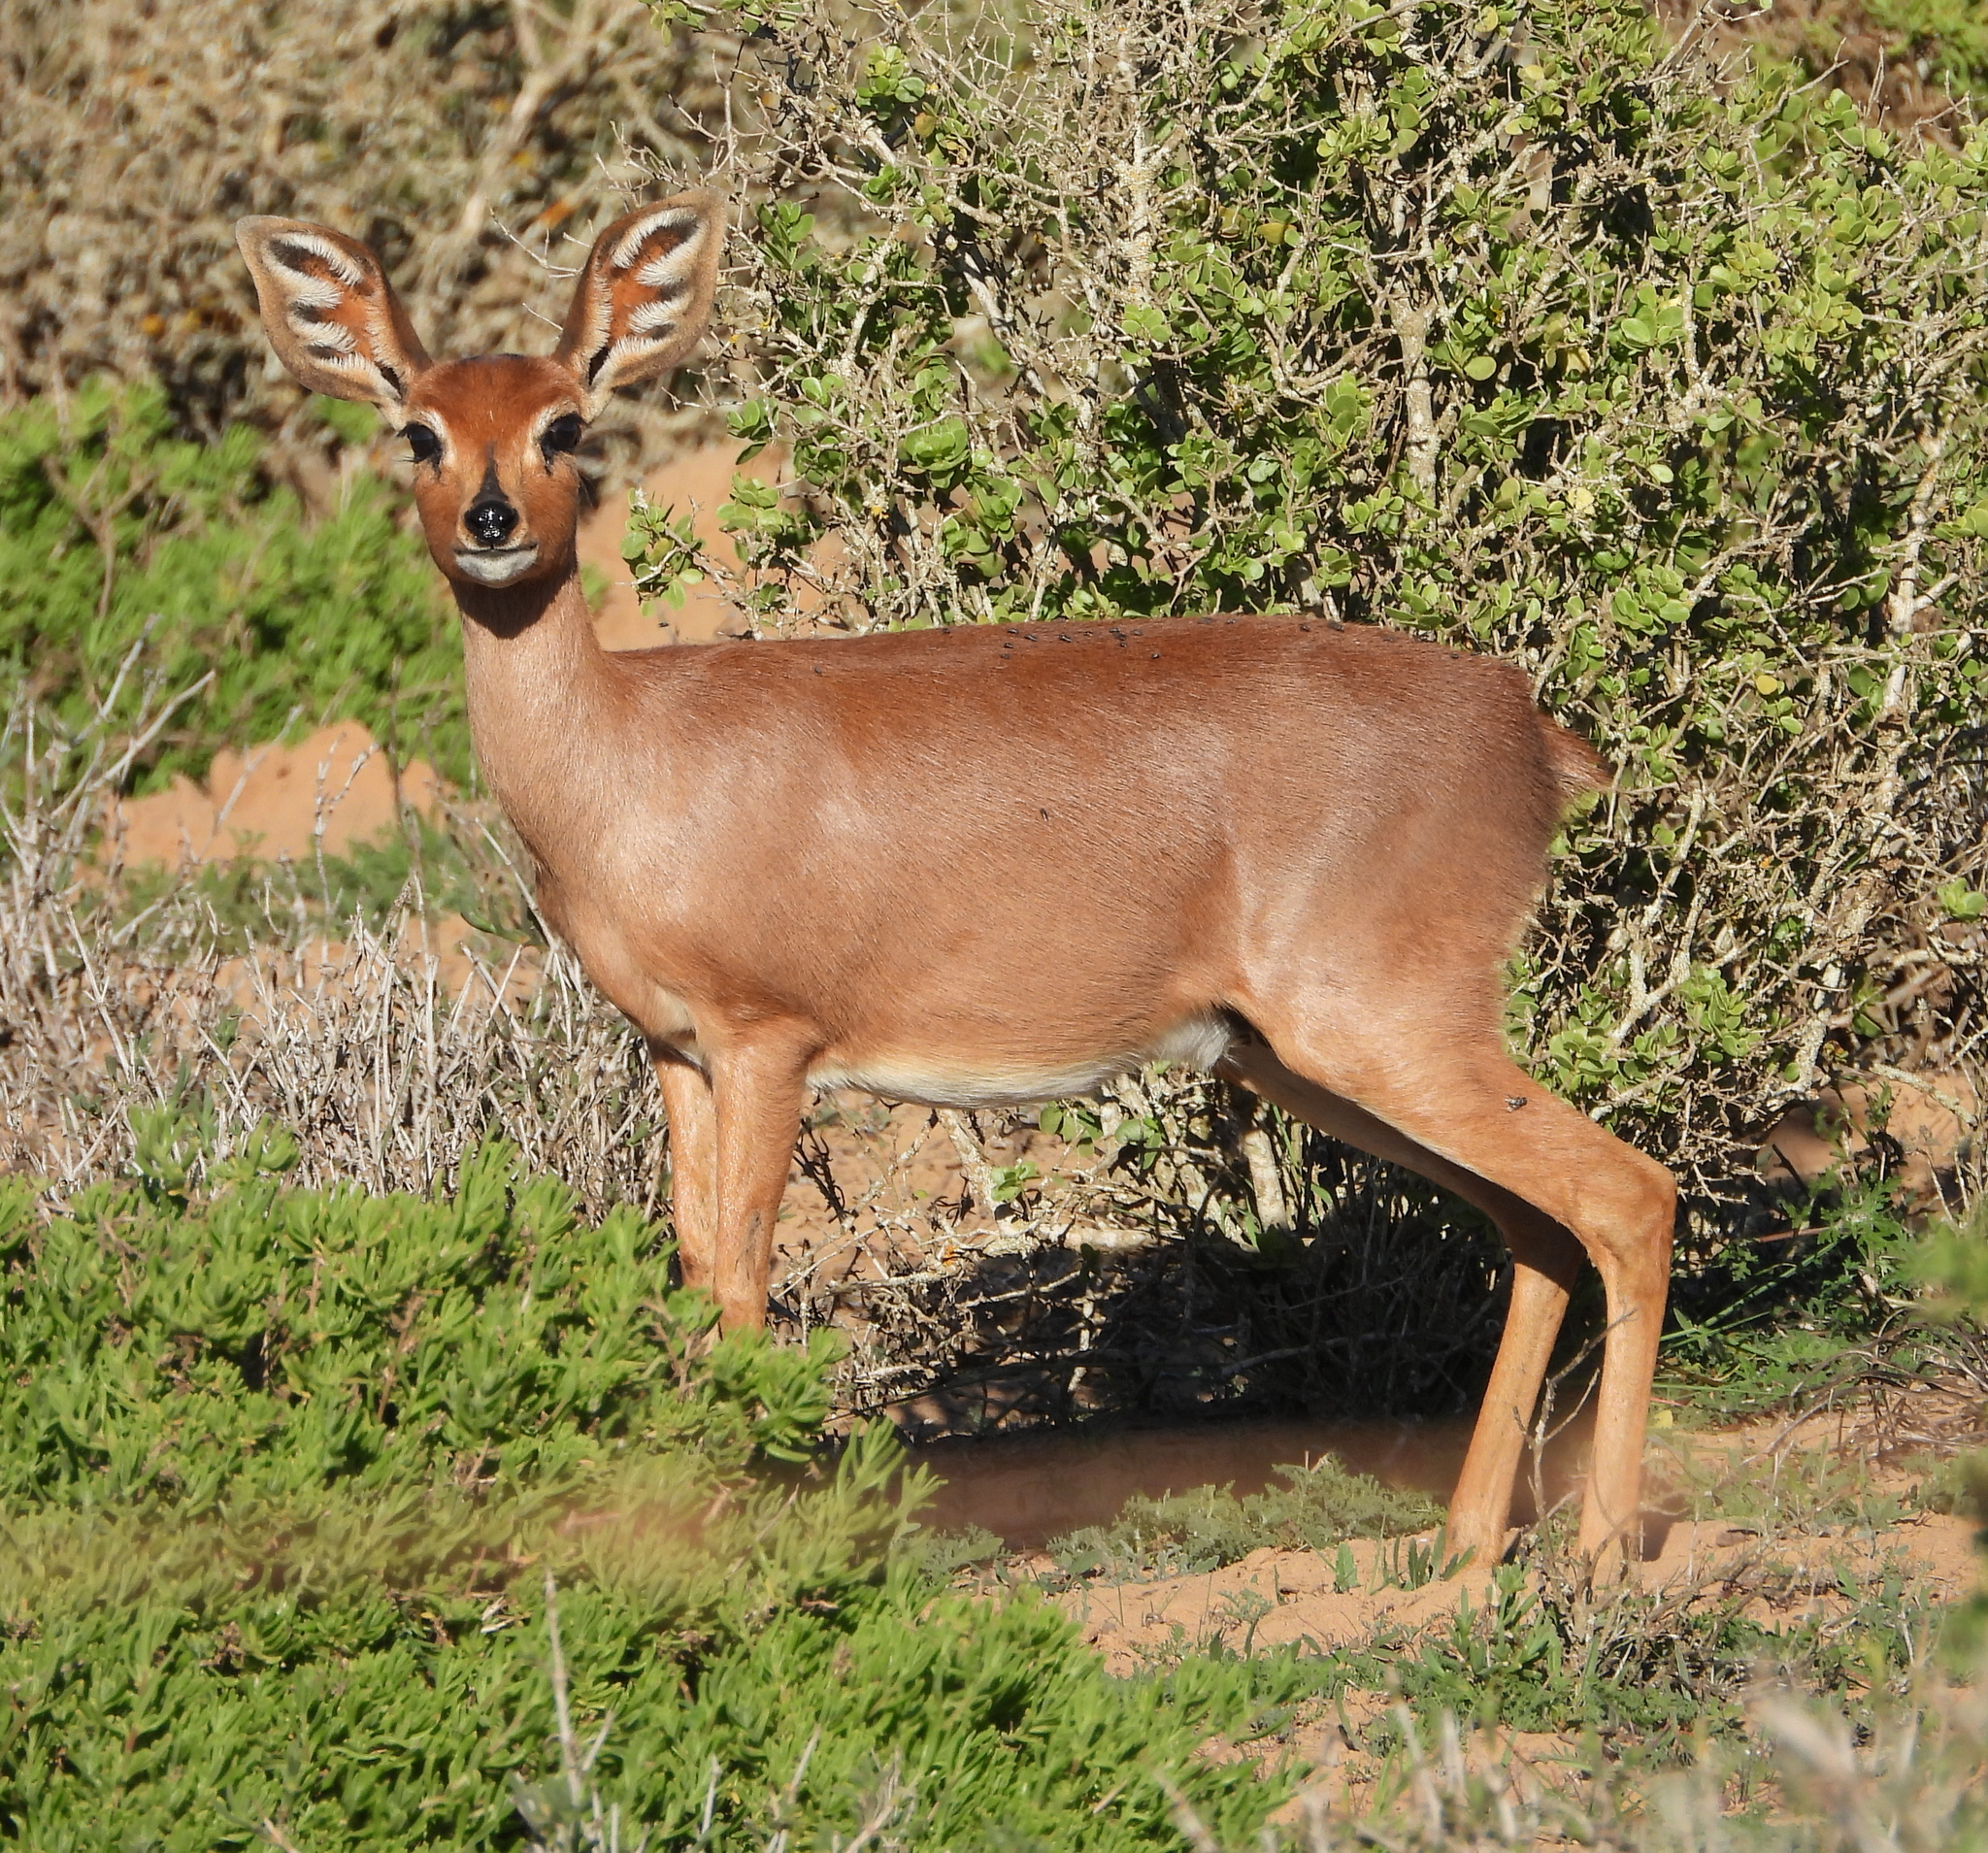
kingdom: Animalia
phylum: Chordata
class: Mammalia
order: Artiodactyla
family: Bovidae
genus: Raphicerus
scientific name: Raphicerus campestris
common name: Steenbok
